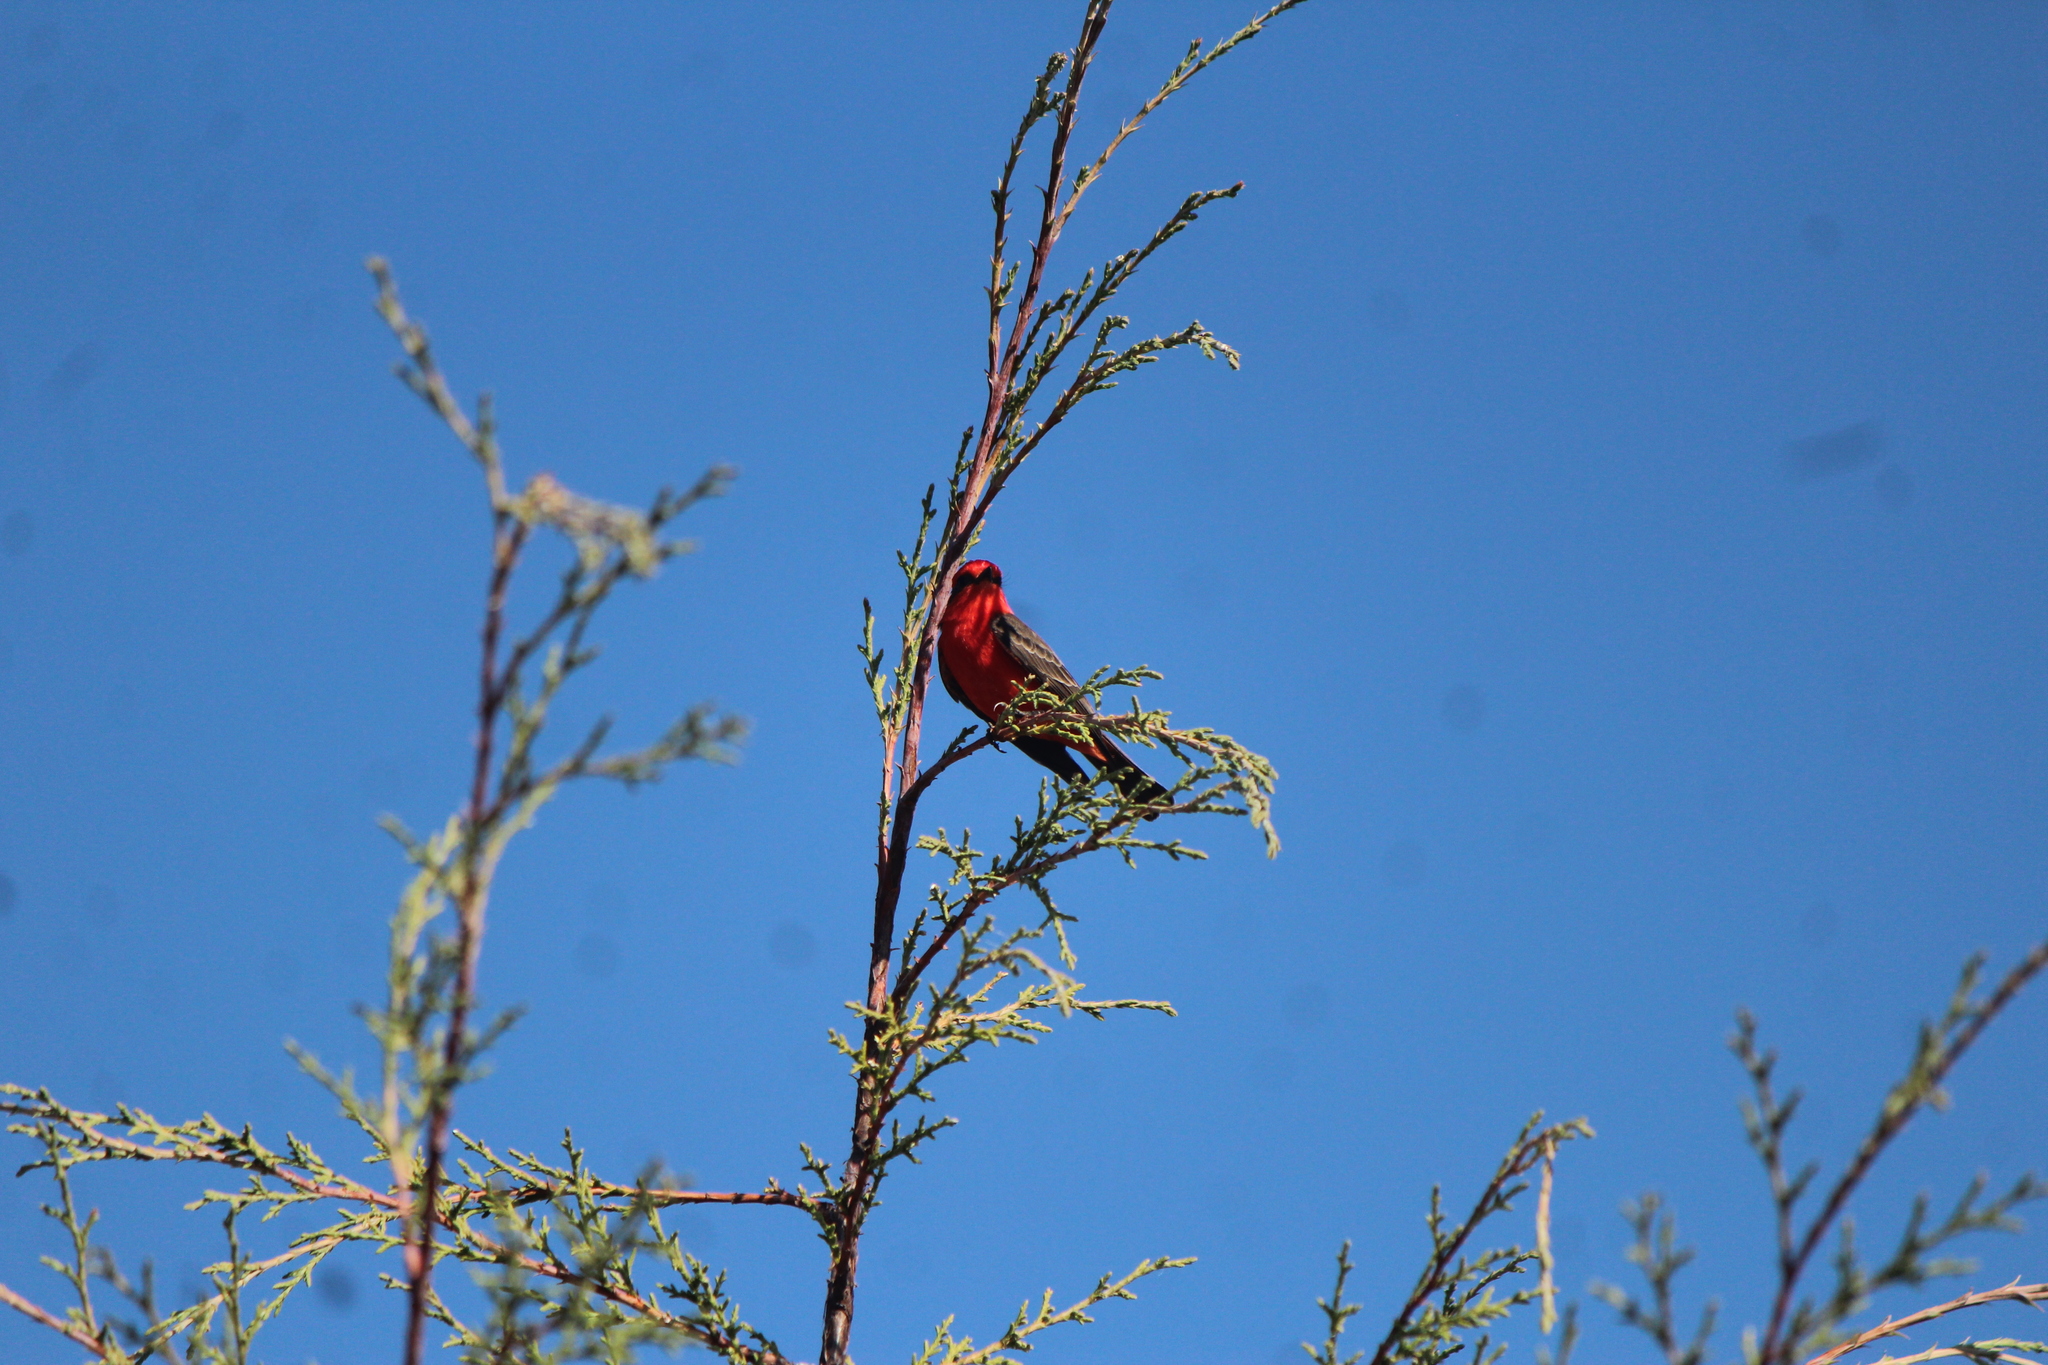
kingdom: Animalia
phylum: Chordata
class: Aves
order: Passeriformes
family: Tyrannidae
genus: Pyrocephalus
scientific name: Pyrocephalus rubinus
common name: Vermilion flycatcher
